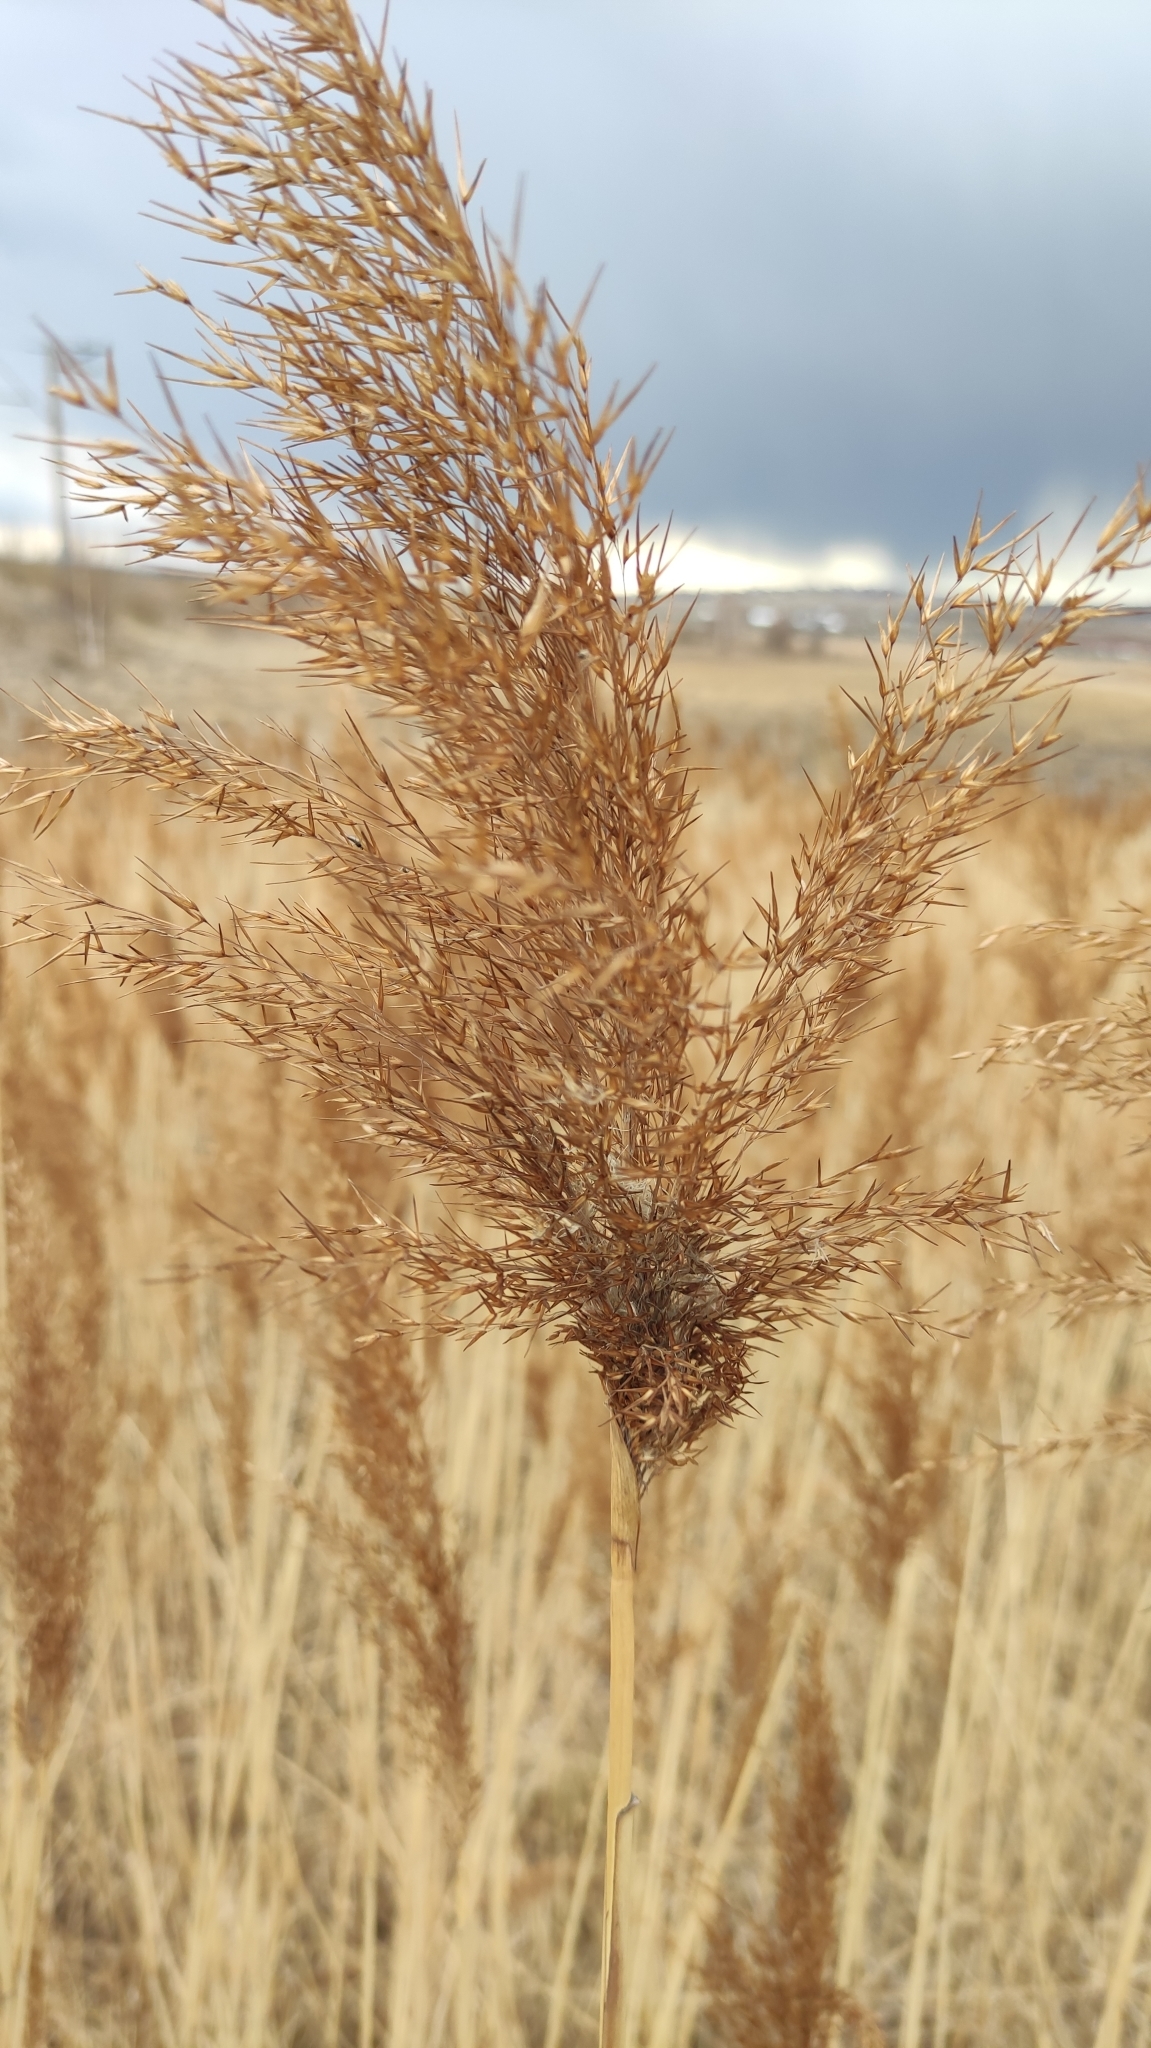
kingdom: Plantae
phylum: Tracheophyta
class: Liliopsida
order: Poales
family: Poaceae
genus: Phragmites
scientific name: Phragmites australis
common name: Common reed
